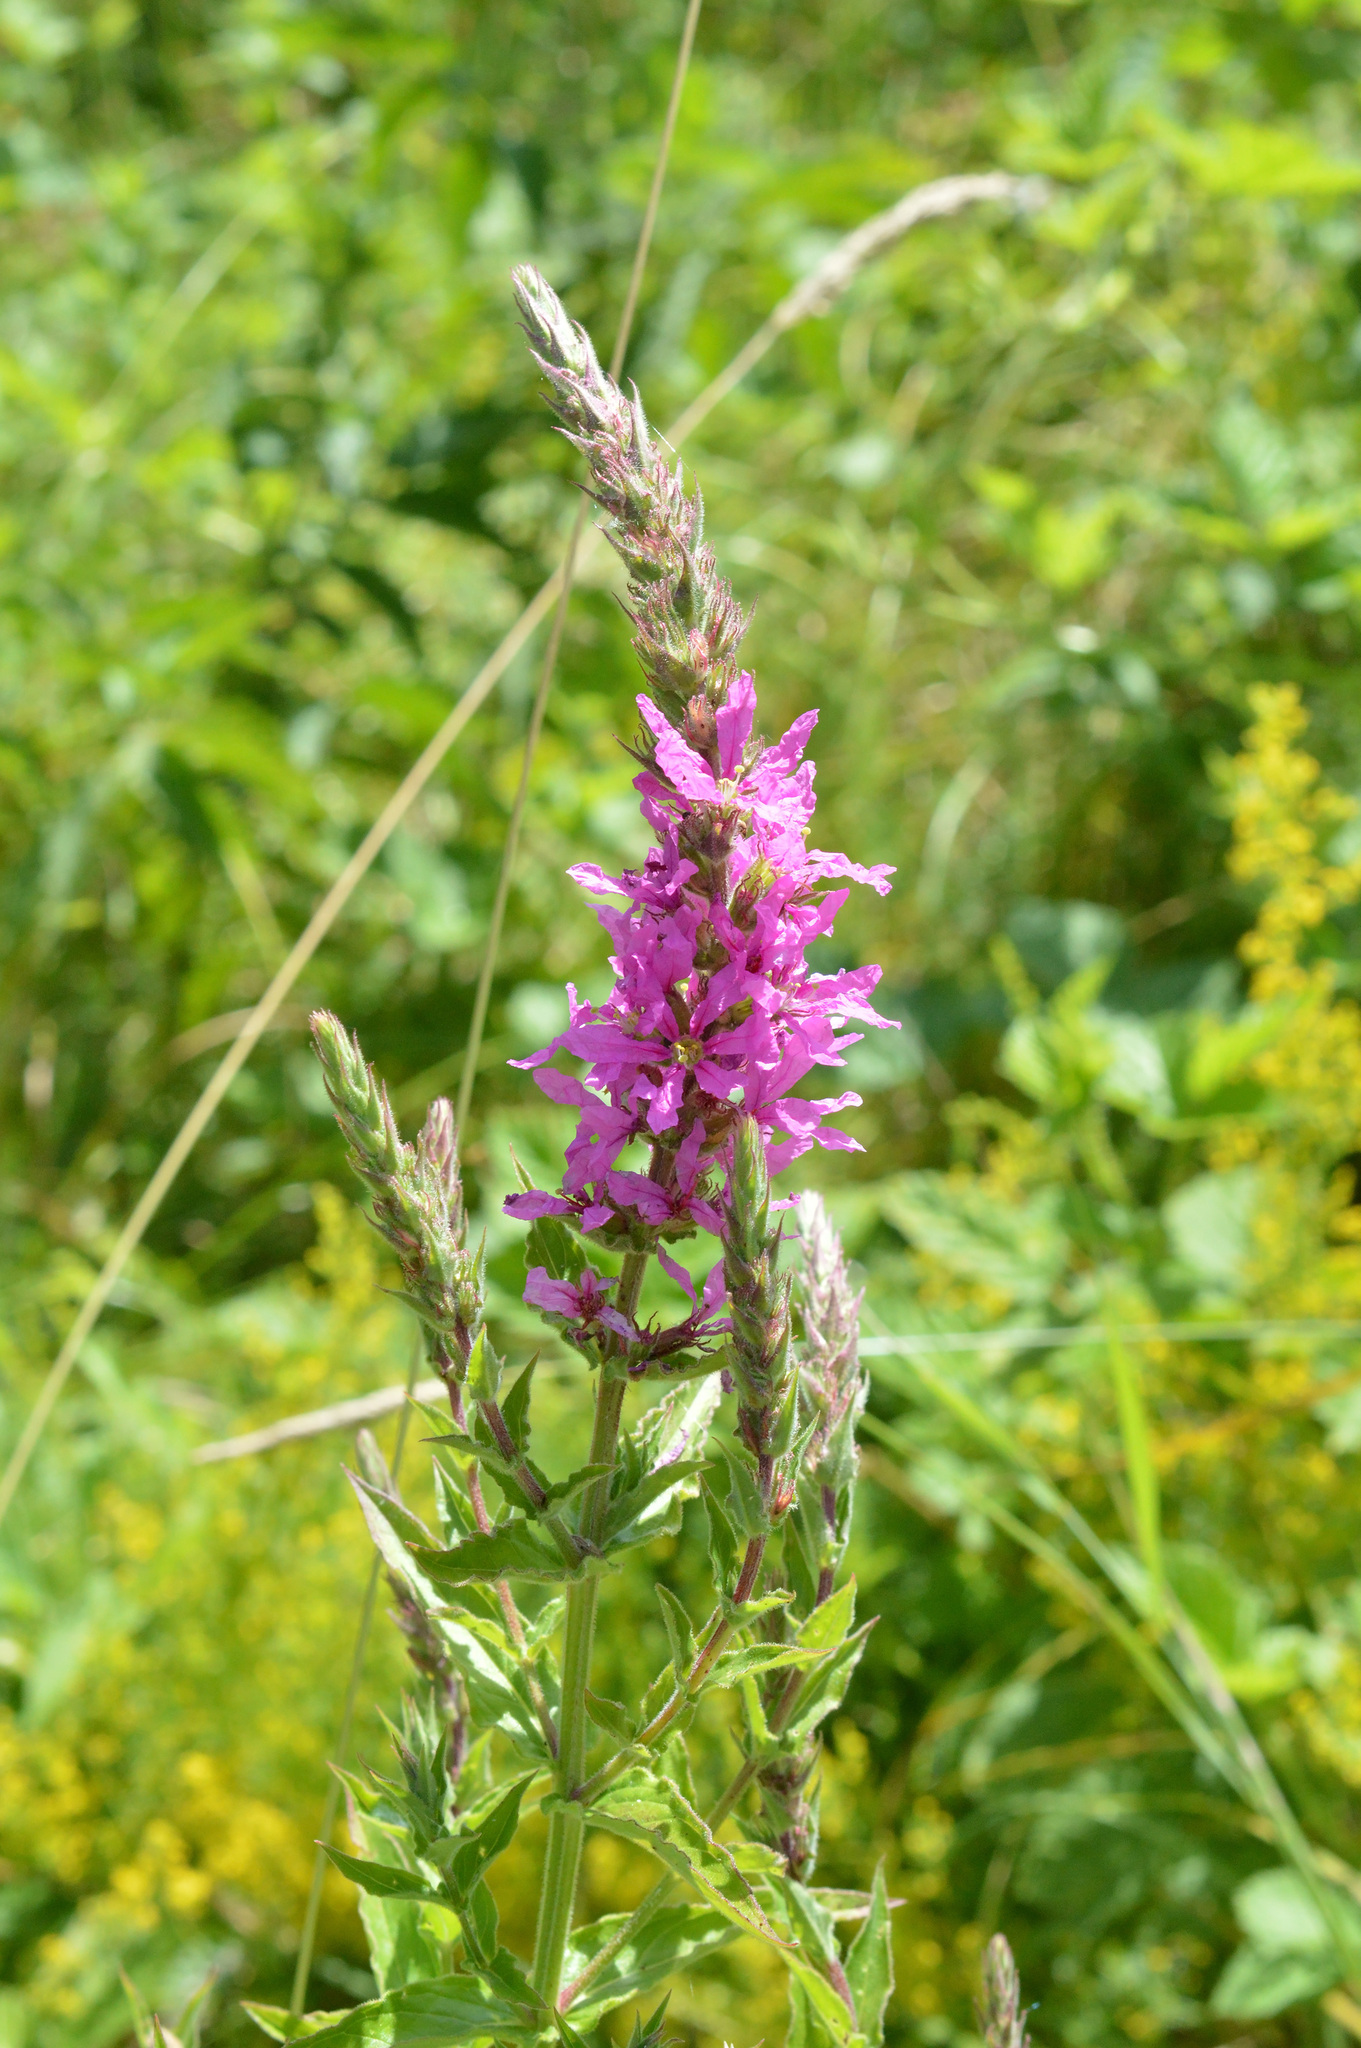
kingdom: Plantae
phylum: Tracheophyta
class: Magnoliopsida
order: Myrtales
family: Lythraceae
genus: Lythrum
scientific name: Lythrum salicaria
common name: Purple loosestrife
